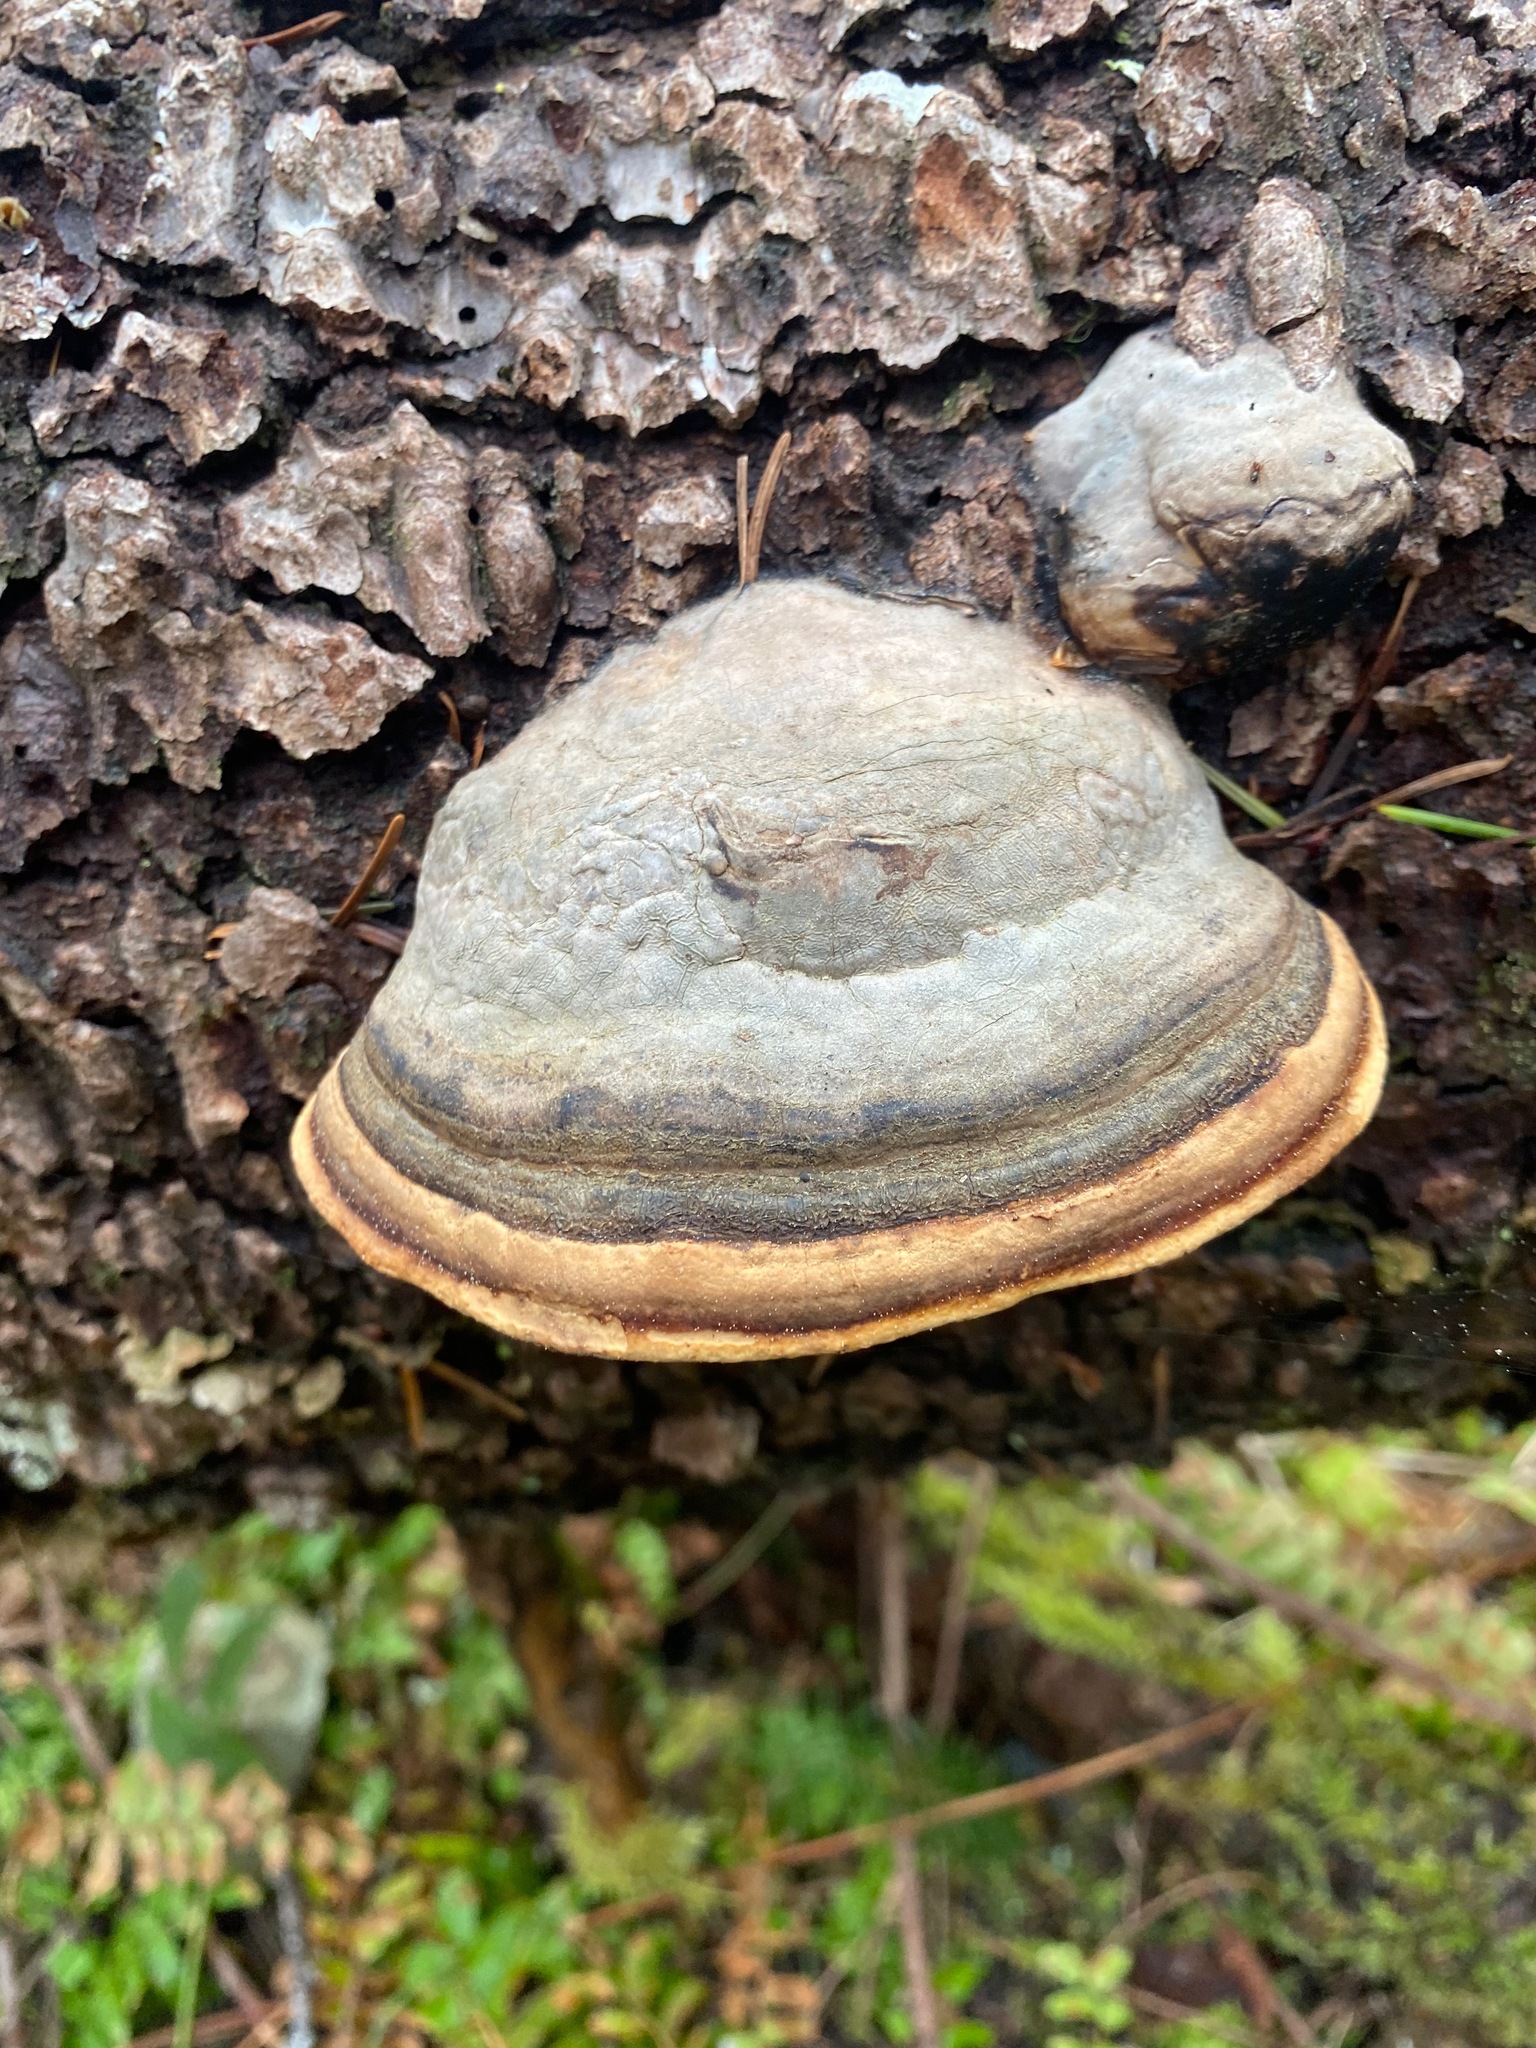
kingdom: Fungi
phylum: Basidiomycota
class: Agaricomycetes
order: Polyporales
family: Fomitopsidaceae
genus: Fomitopsis
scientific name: Fomitopsis mounceae
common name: Northern red belt
